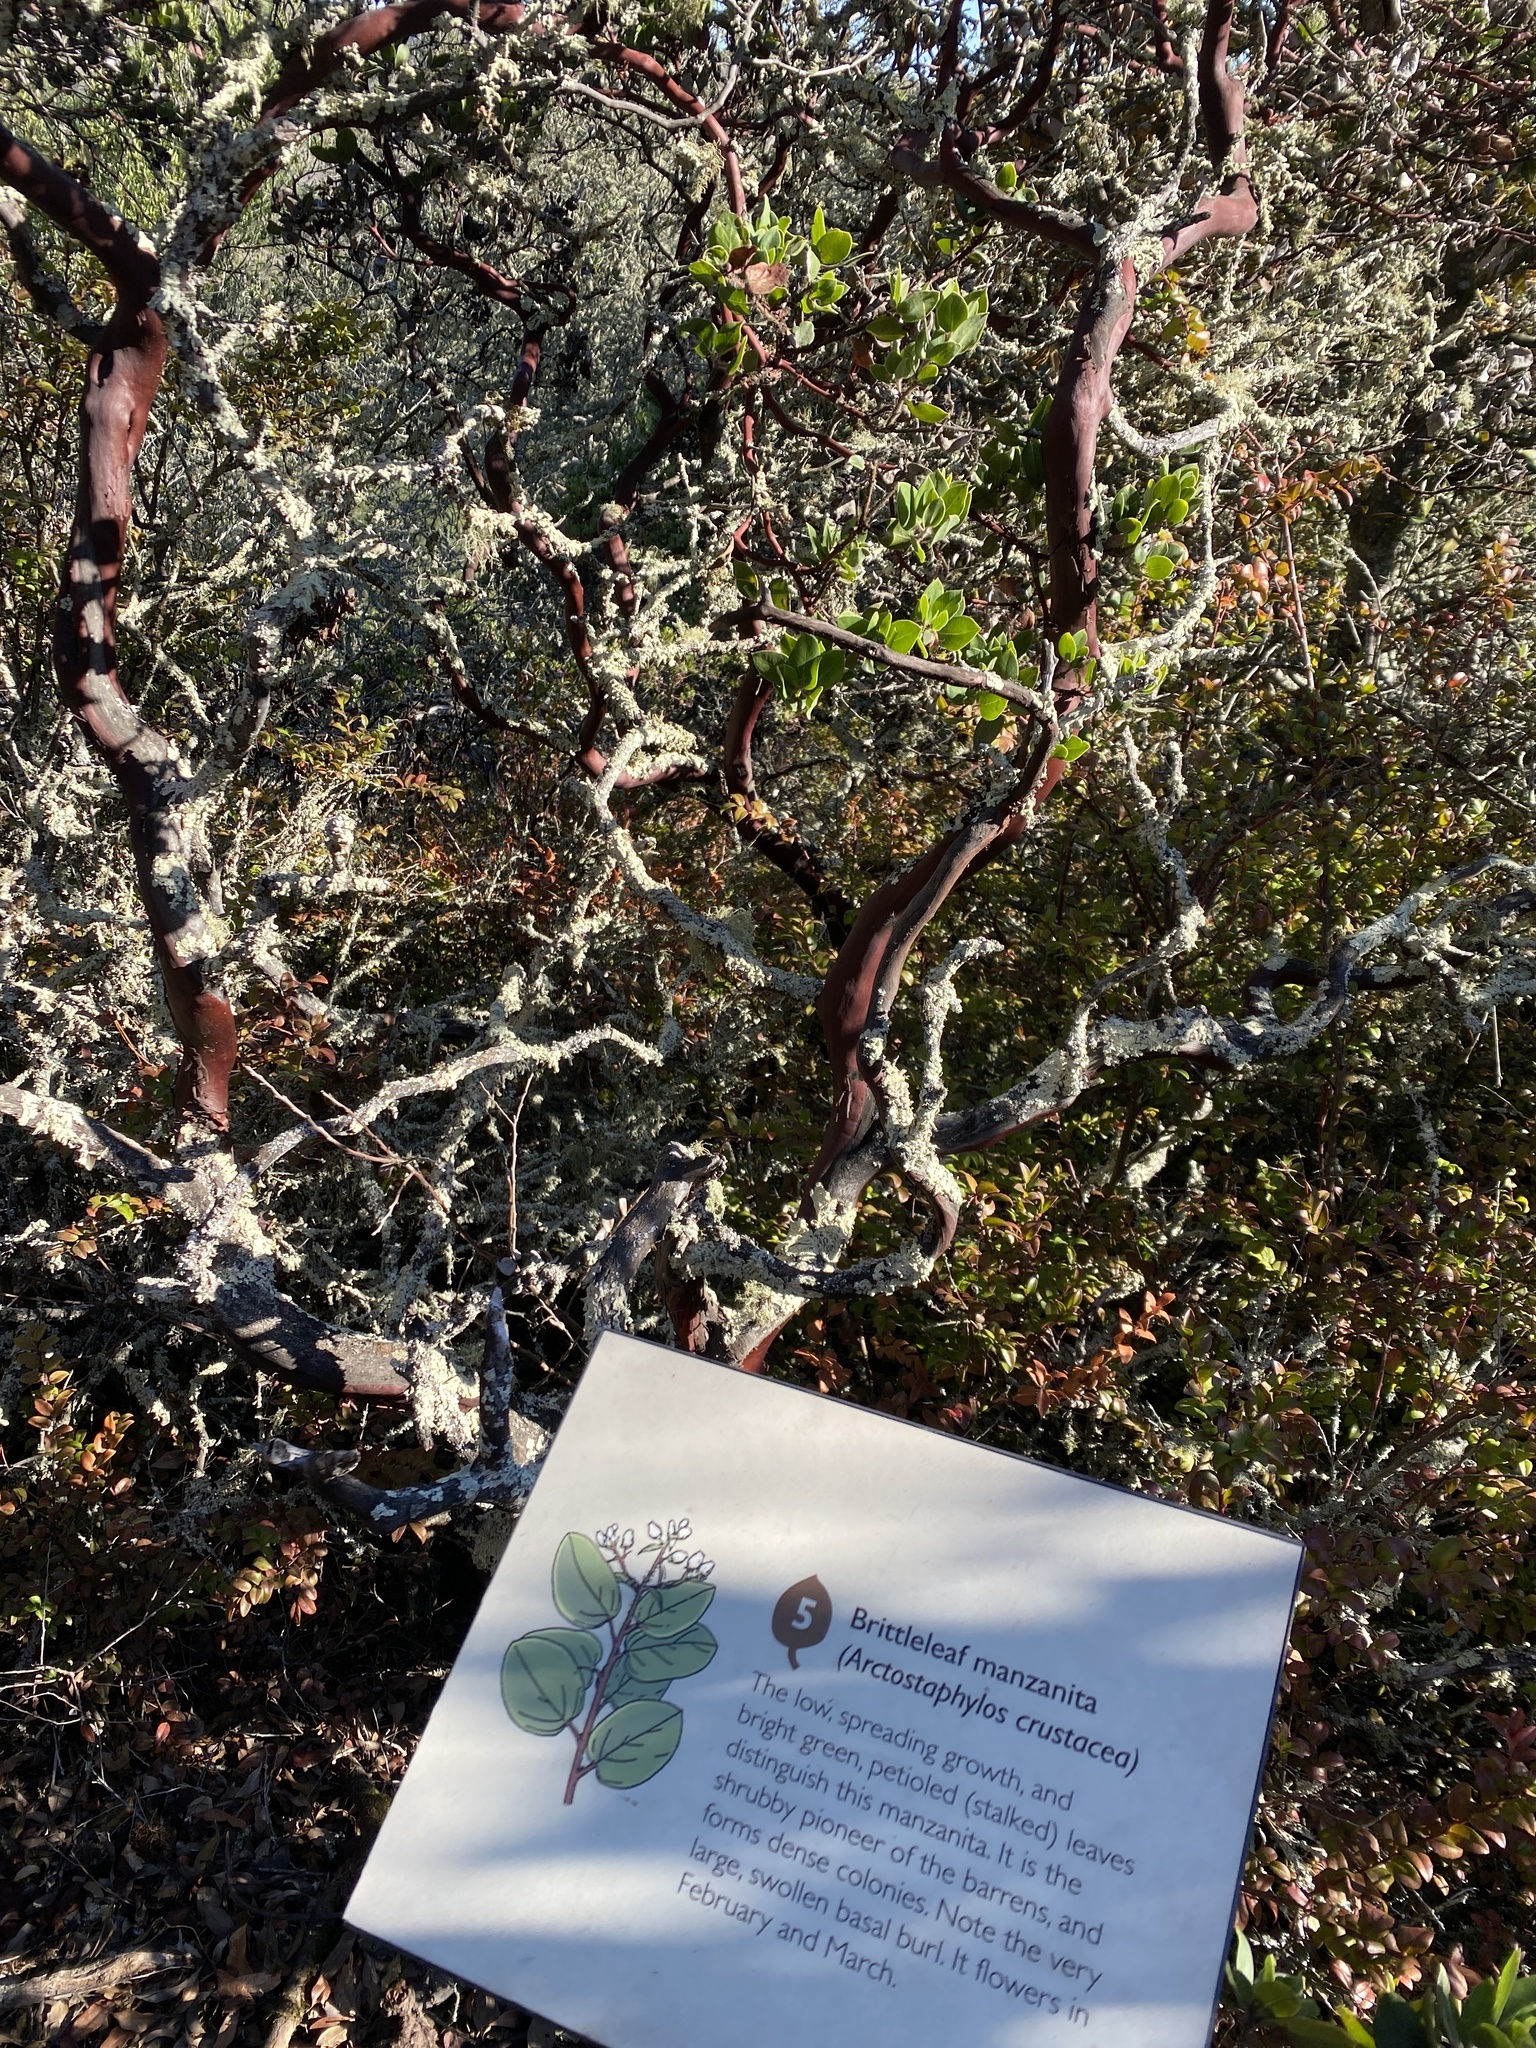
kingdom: Plantae
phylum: Tracheophyta
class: Magnoliopsida
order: Ericales
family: Ericaceae
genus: Arctostaphylos
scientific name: Arctostaphylos crustacea
